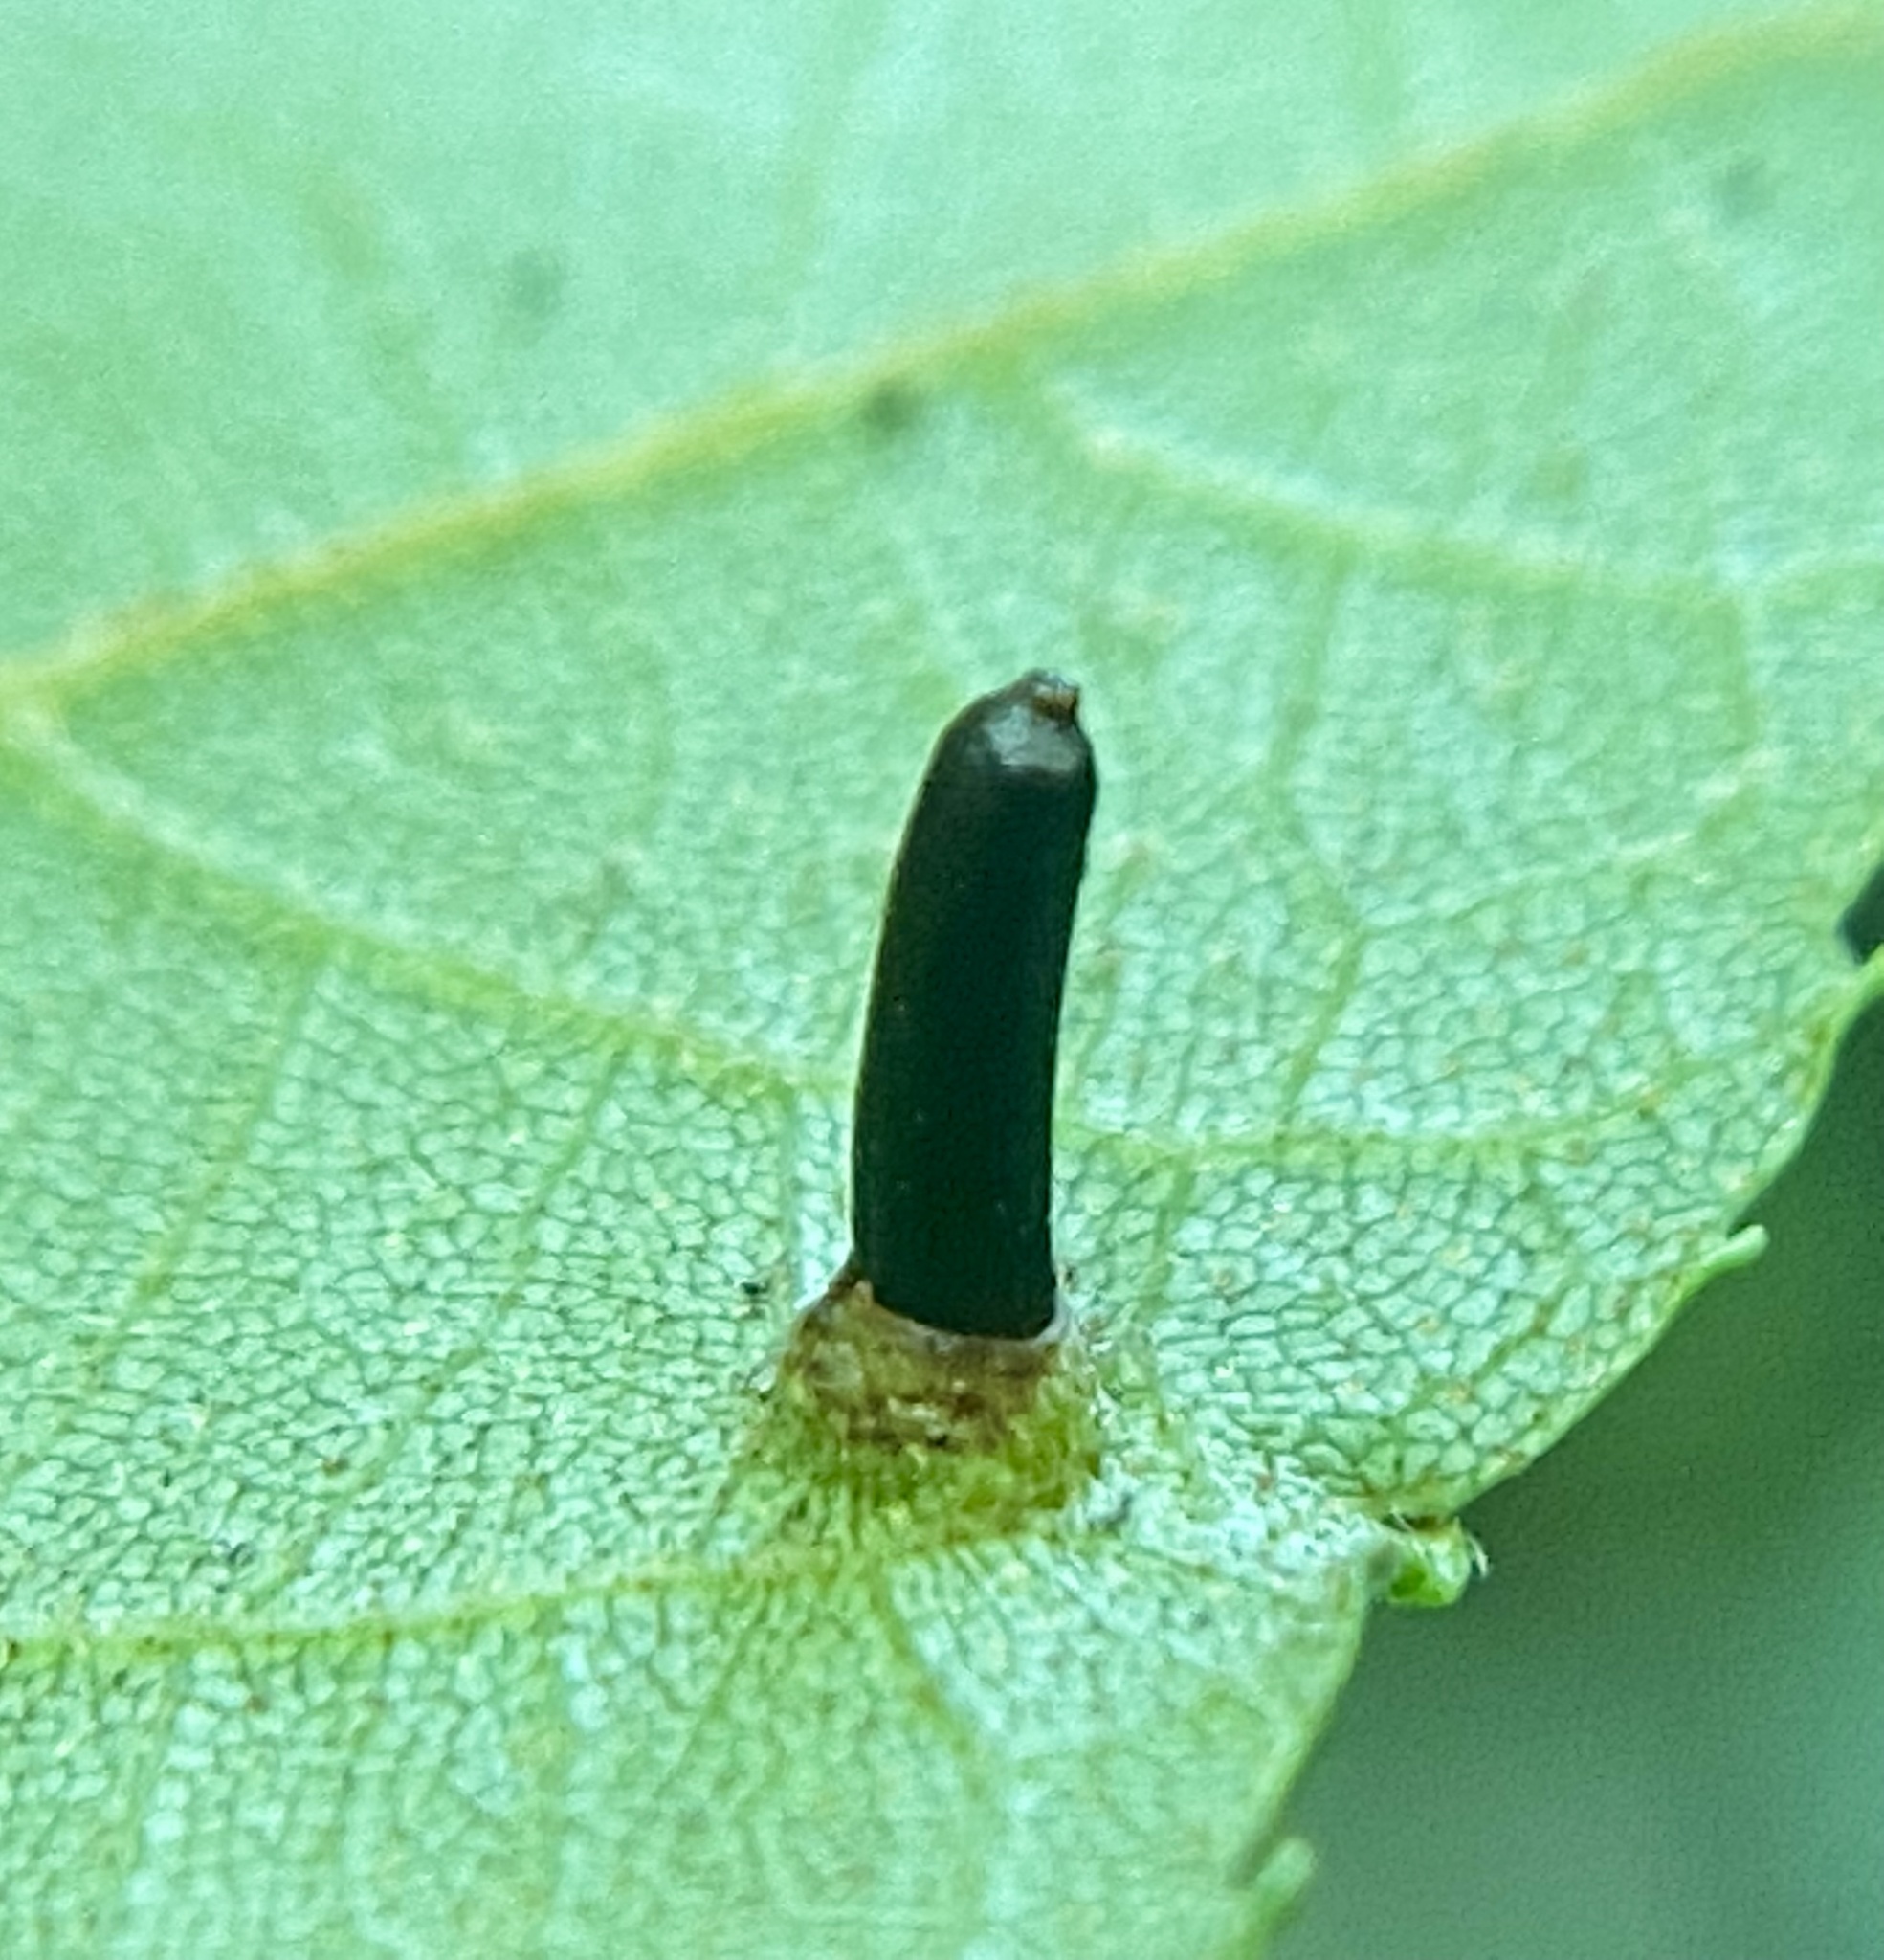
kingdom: Animalia
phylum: Arthropoda
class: Insecta
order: Diptera
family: Cecidomyiidae
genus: Caryomyia
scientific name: Caryomyia tubicola
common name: Hickory bullet gall midge
